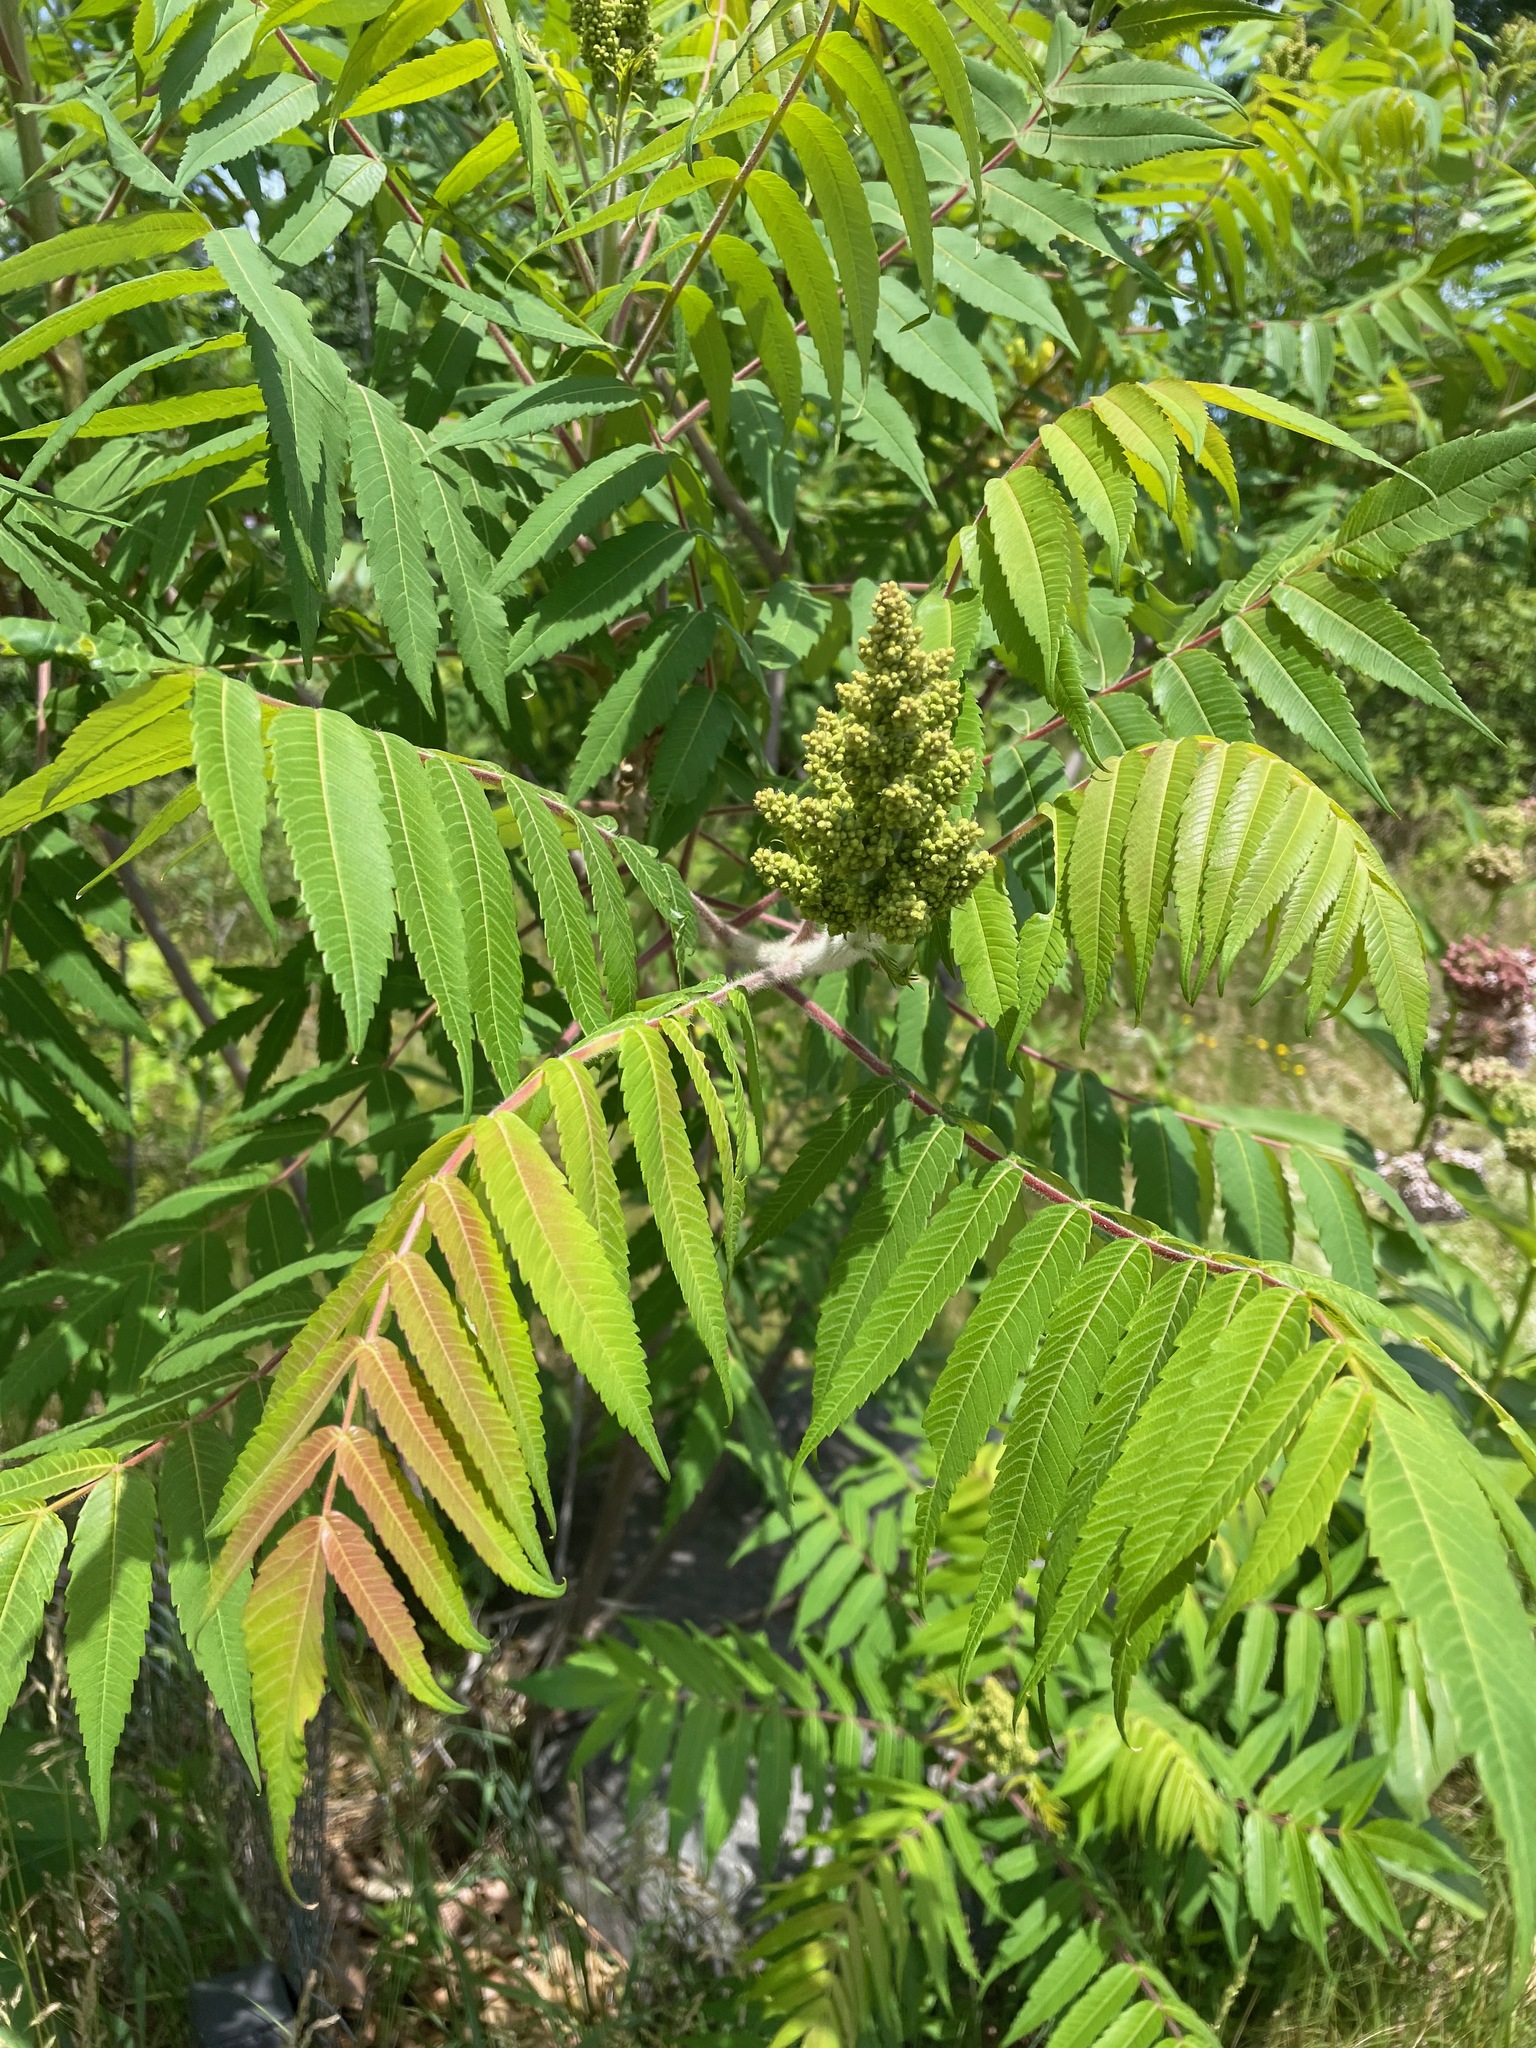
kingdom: Plantae
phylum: Tracheophyta
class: Magnoliopsida
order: Sapindales
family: Anacardiaceae
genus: Rhus
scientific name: Rhus typhina
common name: Staghorn sumac
